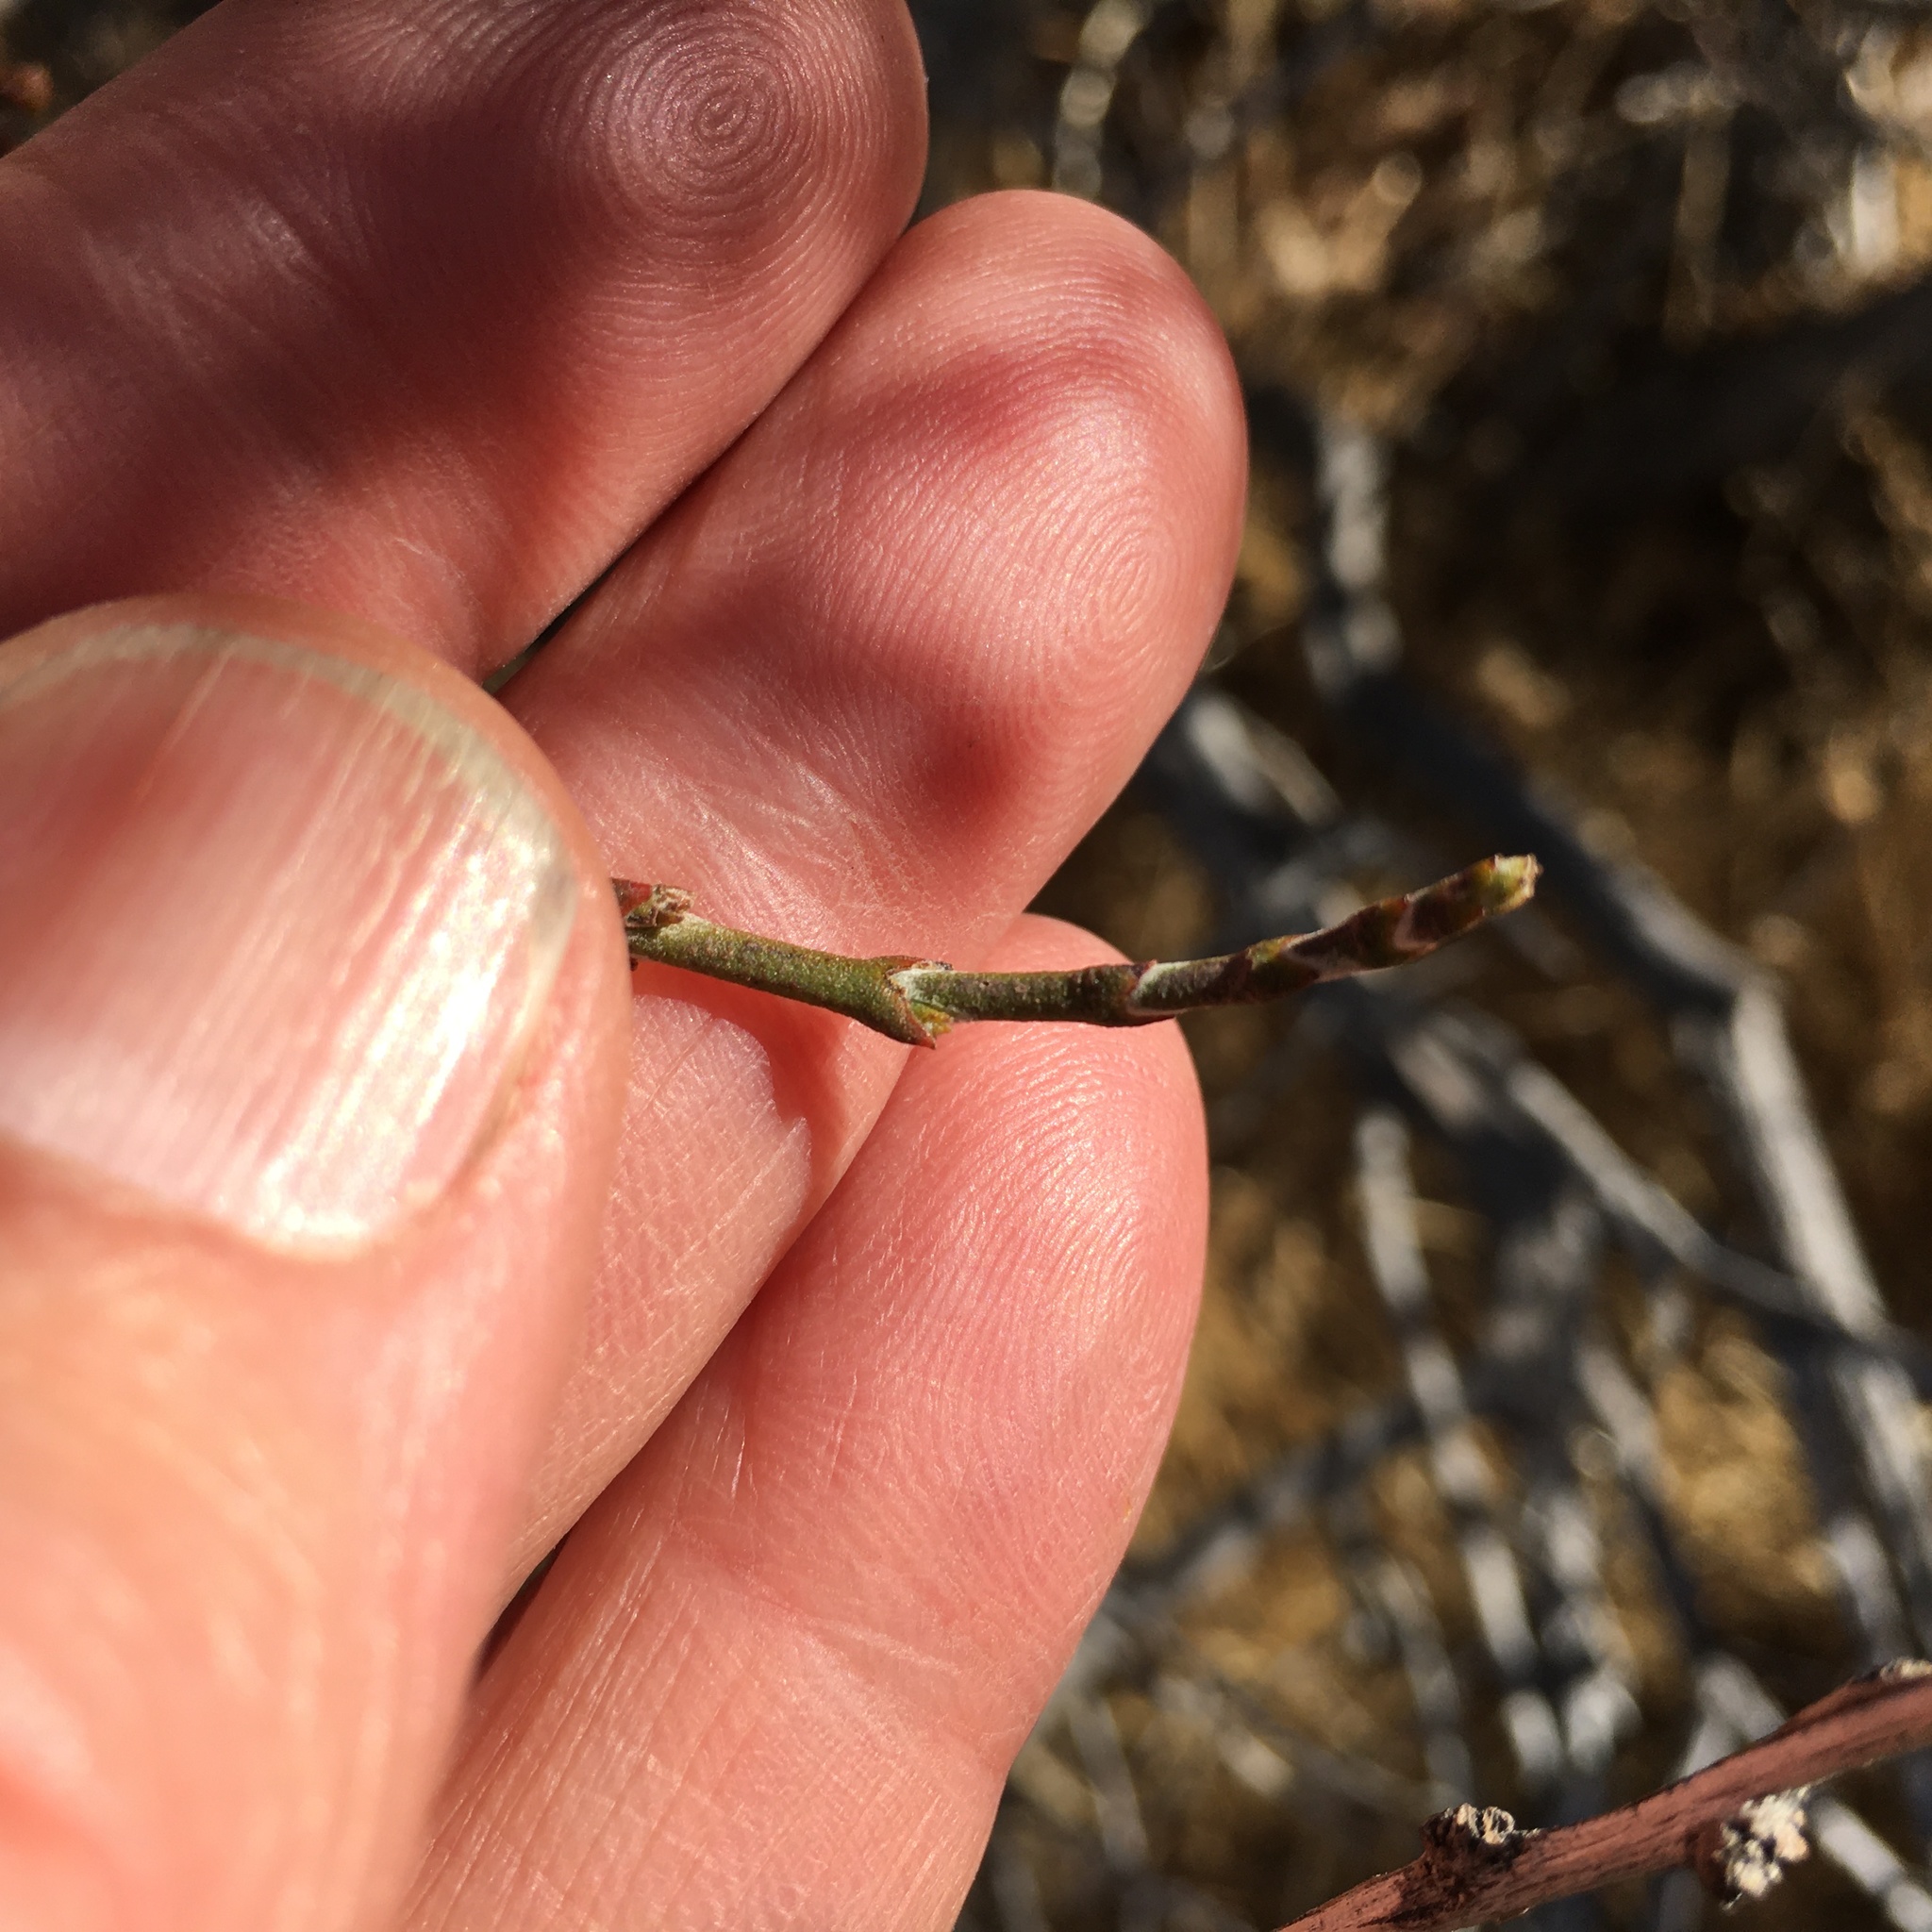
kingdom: Plantae
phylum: Tracheophyta
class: Magnoliopsida
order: Santalales
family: Viscaceae
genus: Phoradendron
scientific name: Phoradendron californicum
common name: Acacia mistletoe
